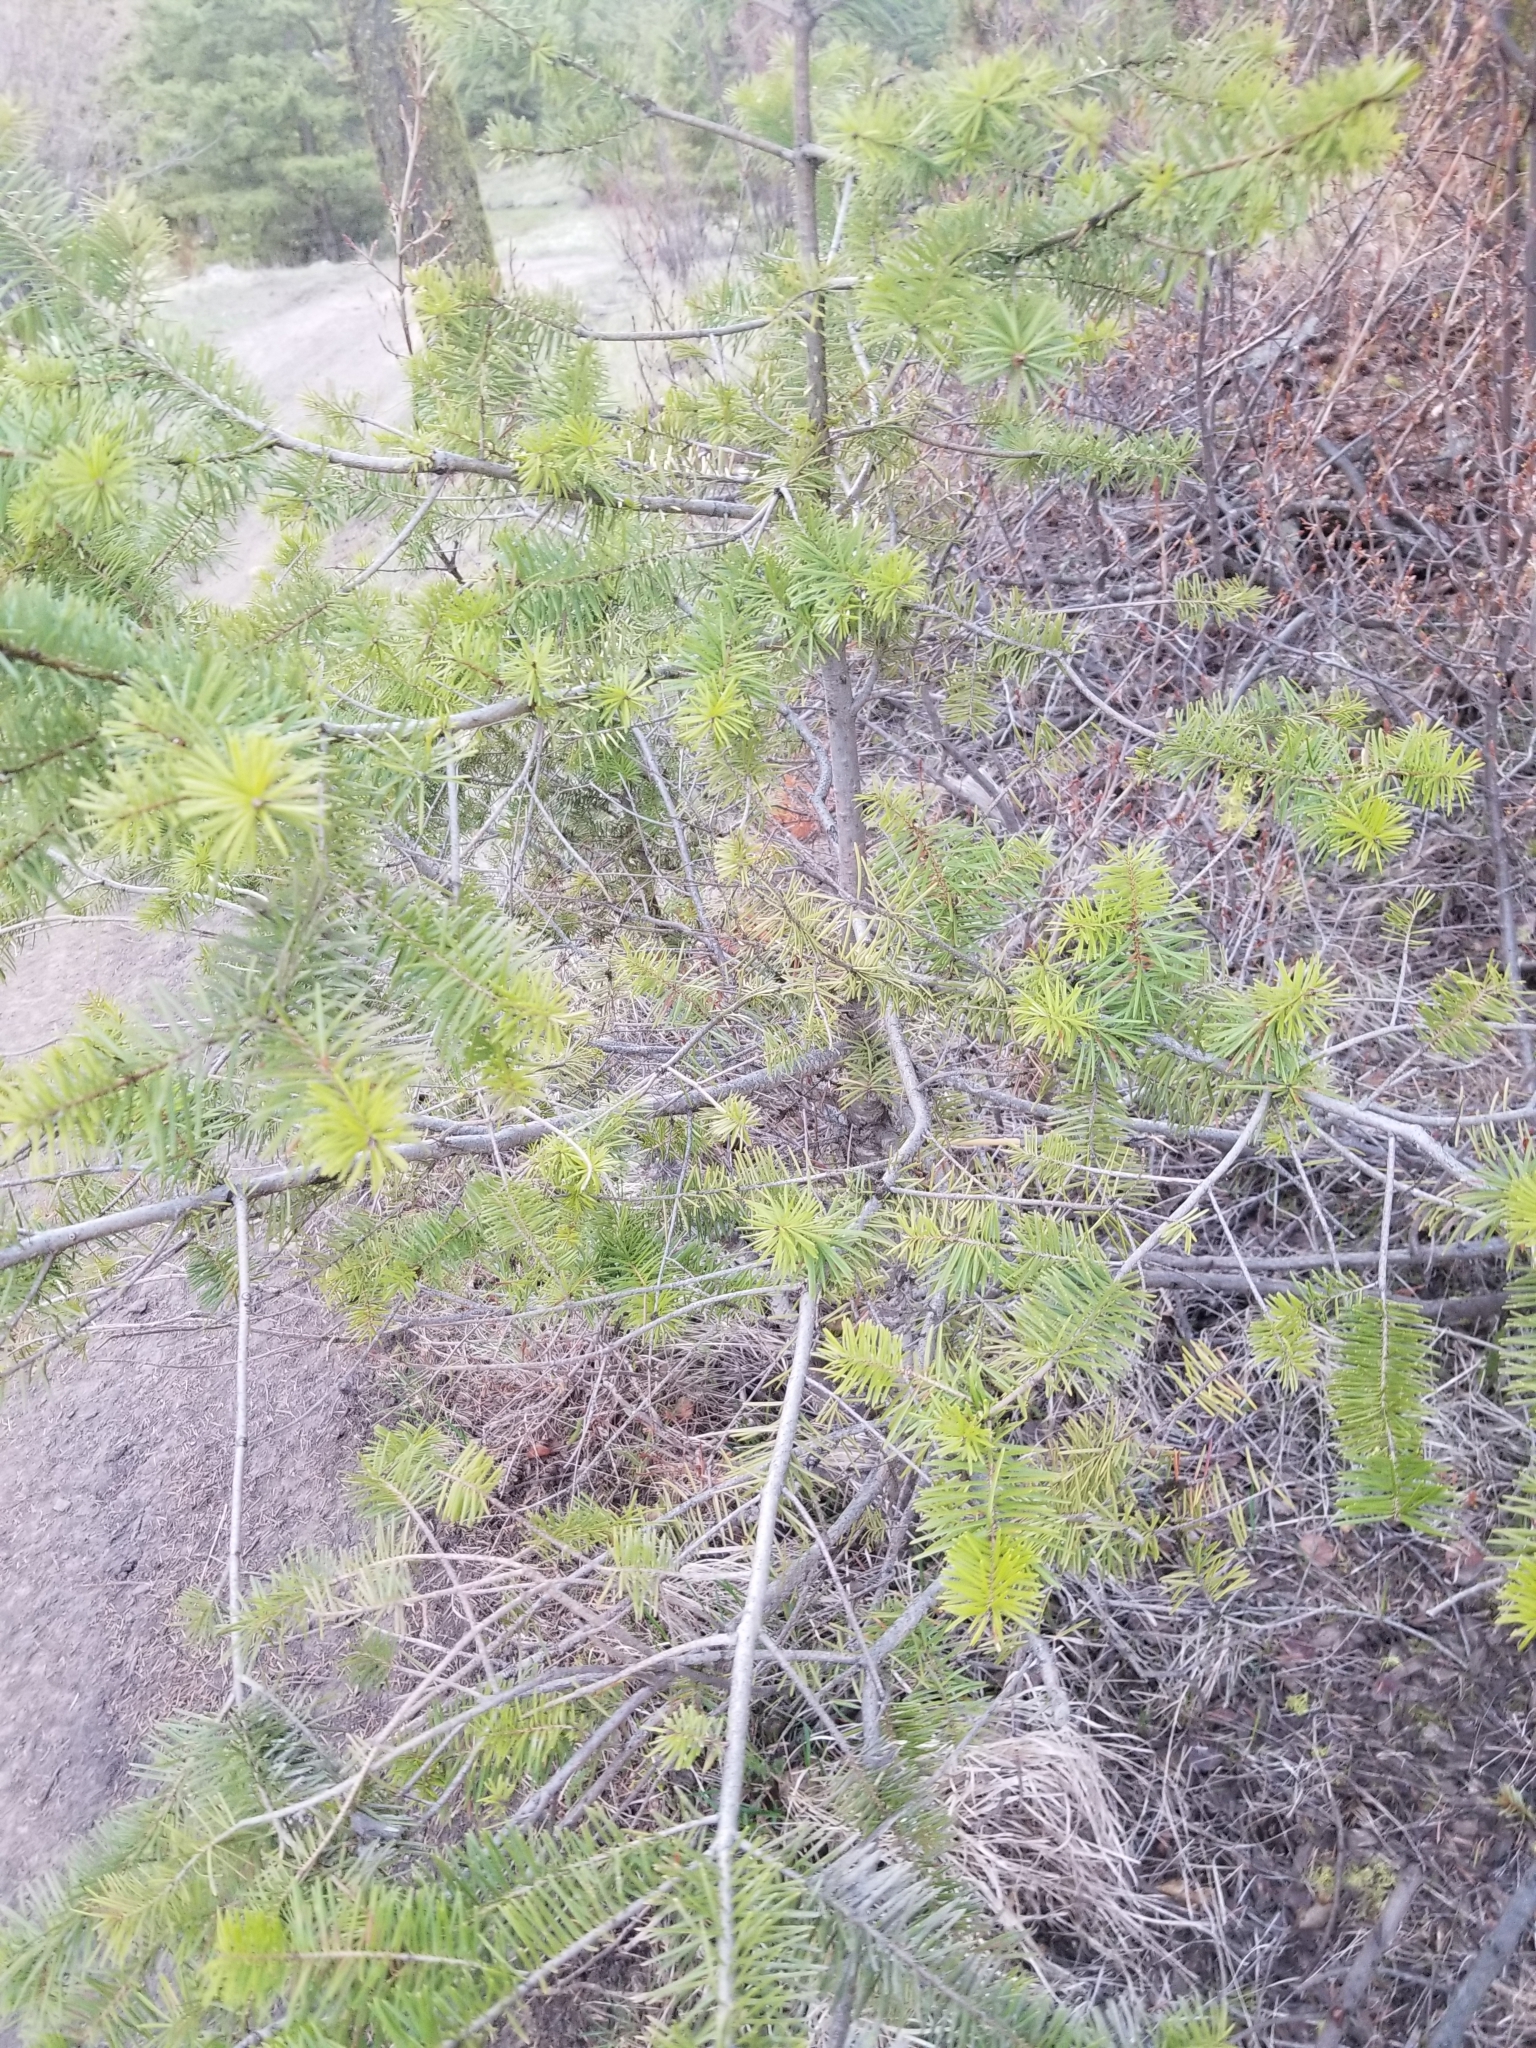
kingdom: Plantae
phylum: Tracheophyta
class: Pinopsida
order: Pinales
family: Pinaceae
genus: Pseudotsuga
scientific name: Pseudotsuga menziesii
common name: Douglas fir
